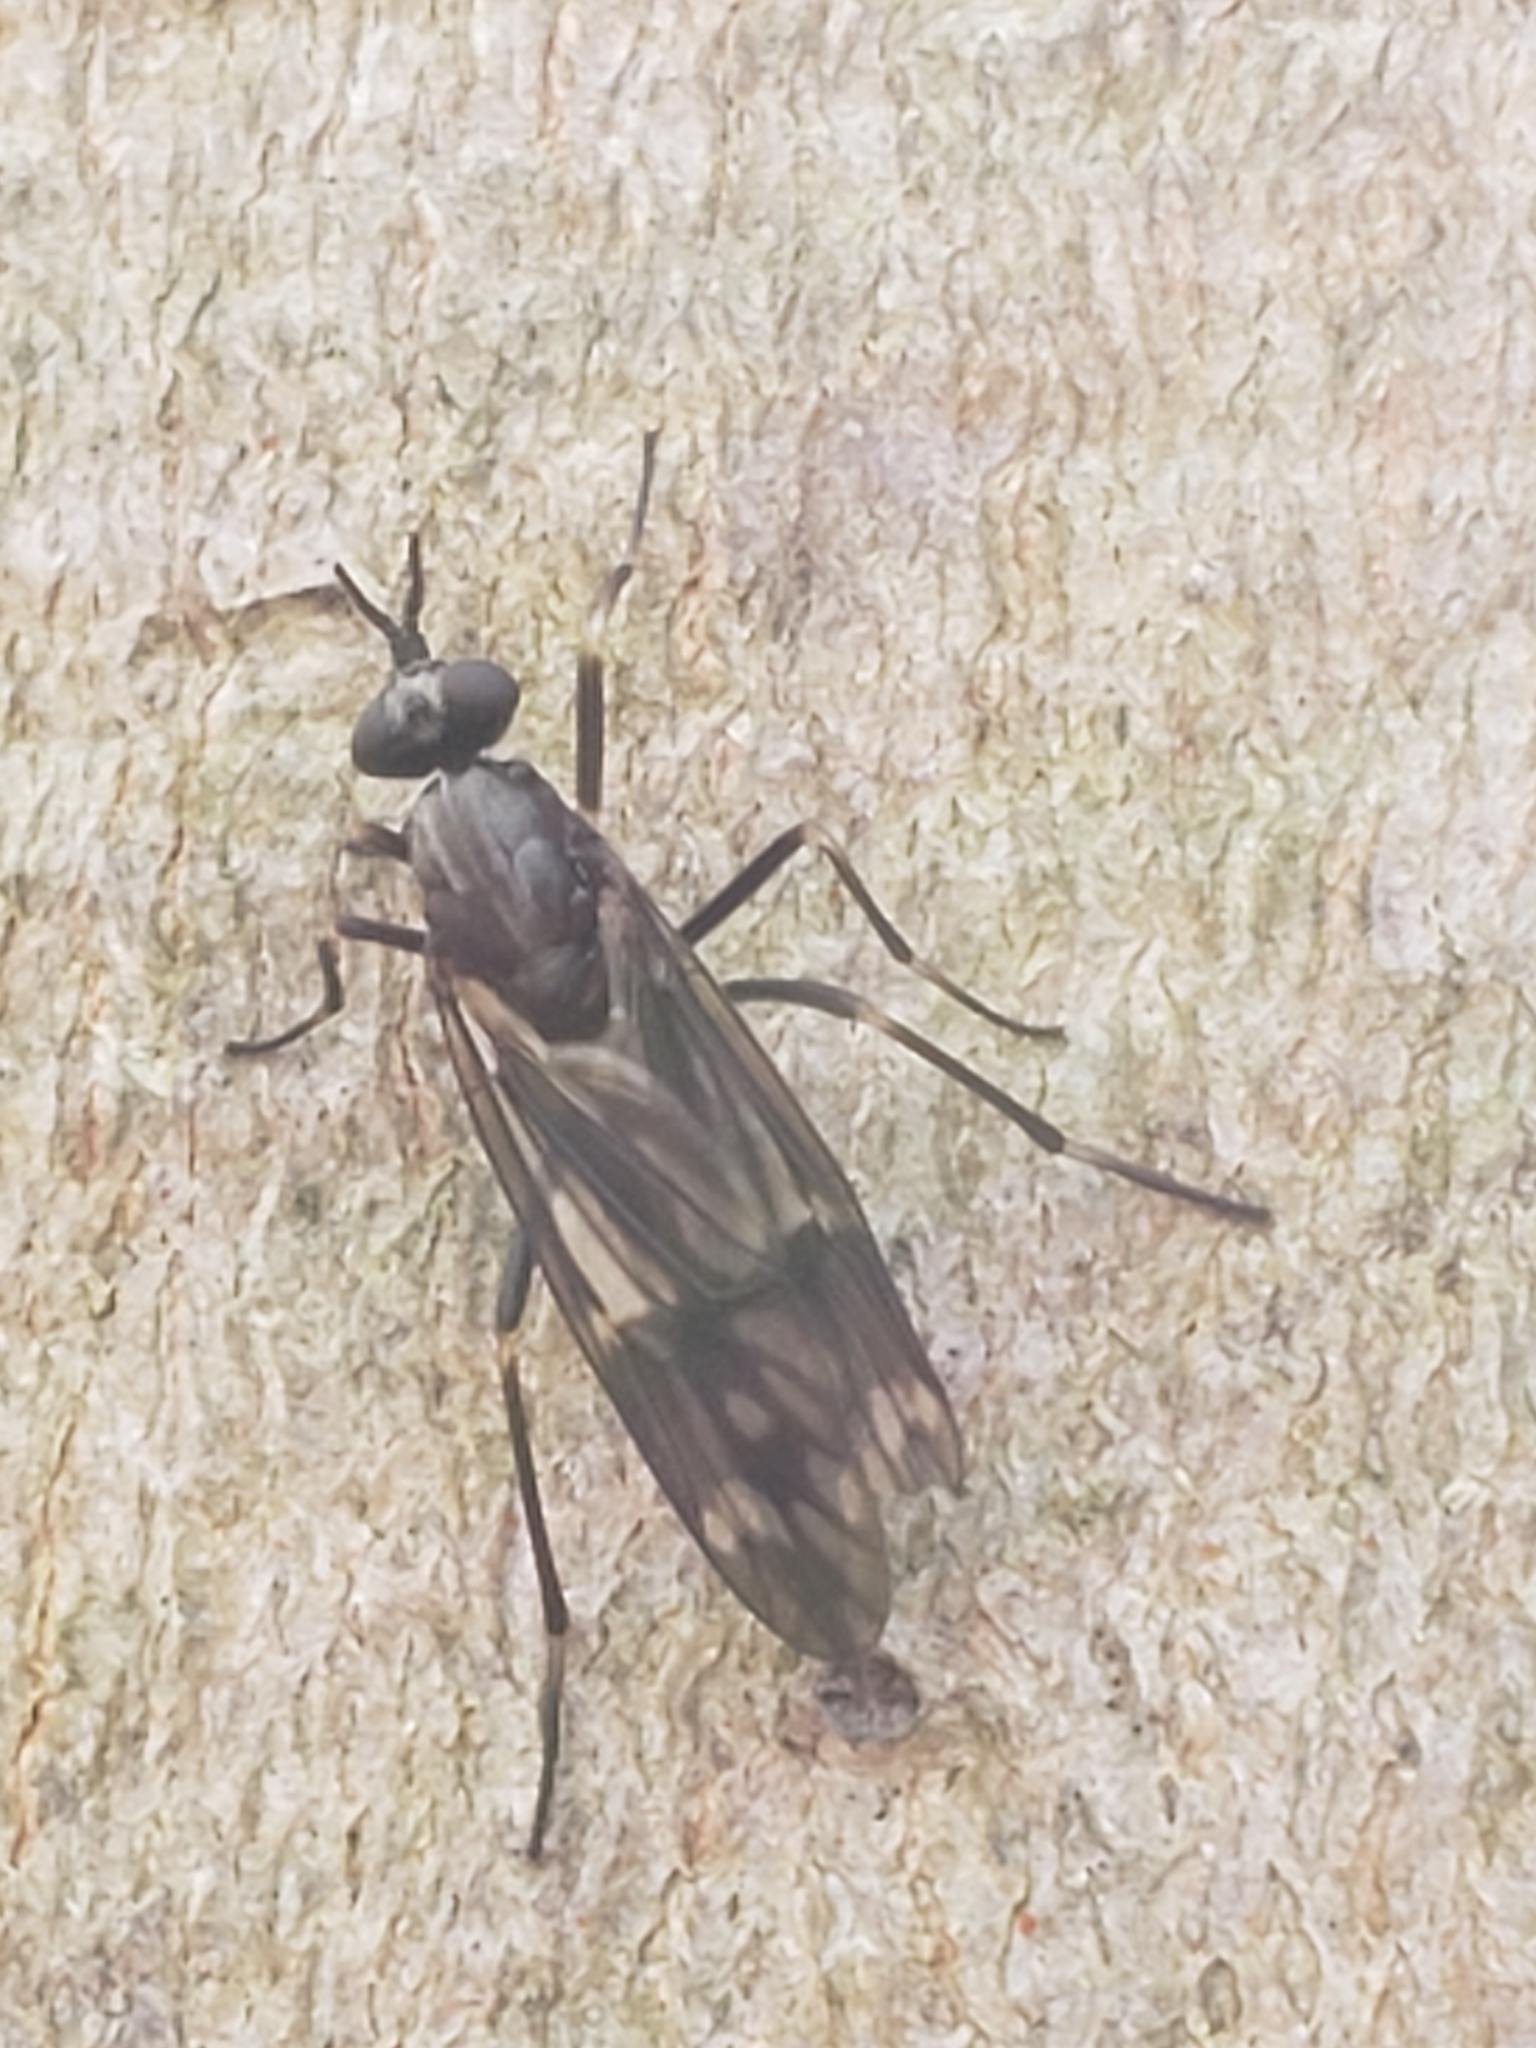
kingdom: Animalia
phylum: Arthropoda
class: Insecta
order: Diptera
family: Xylophagidae
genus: Xylophagus
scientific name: Xylophagus lugens
